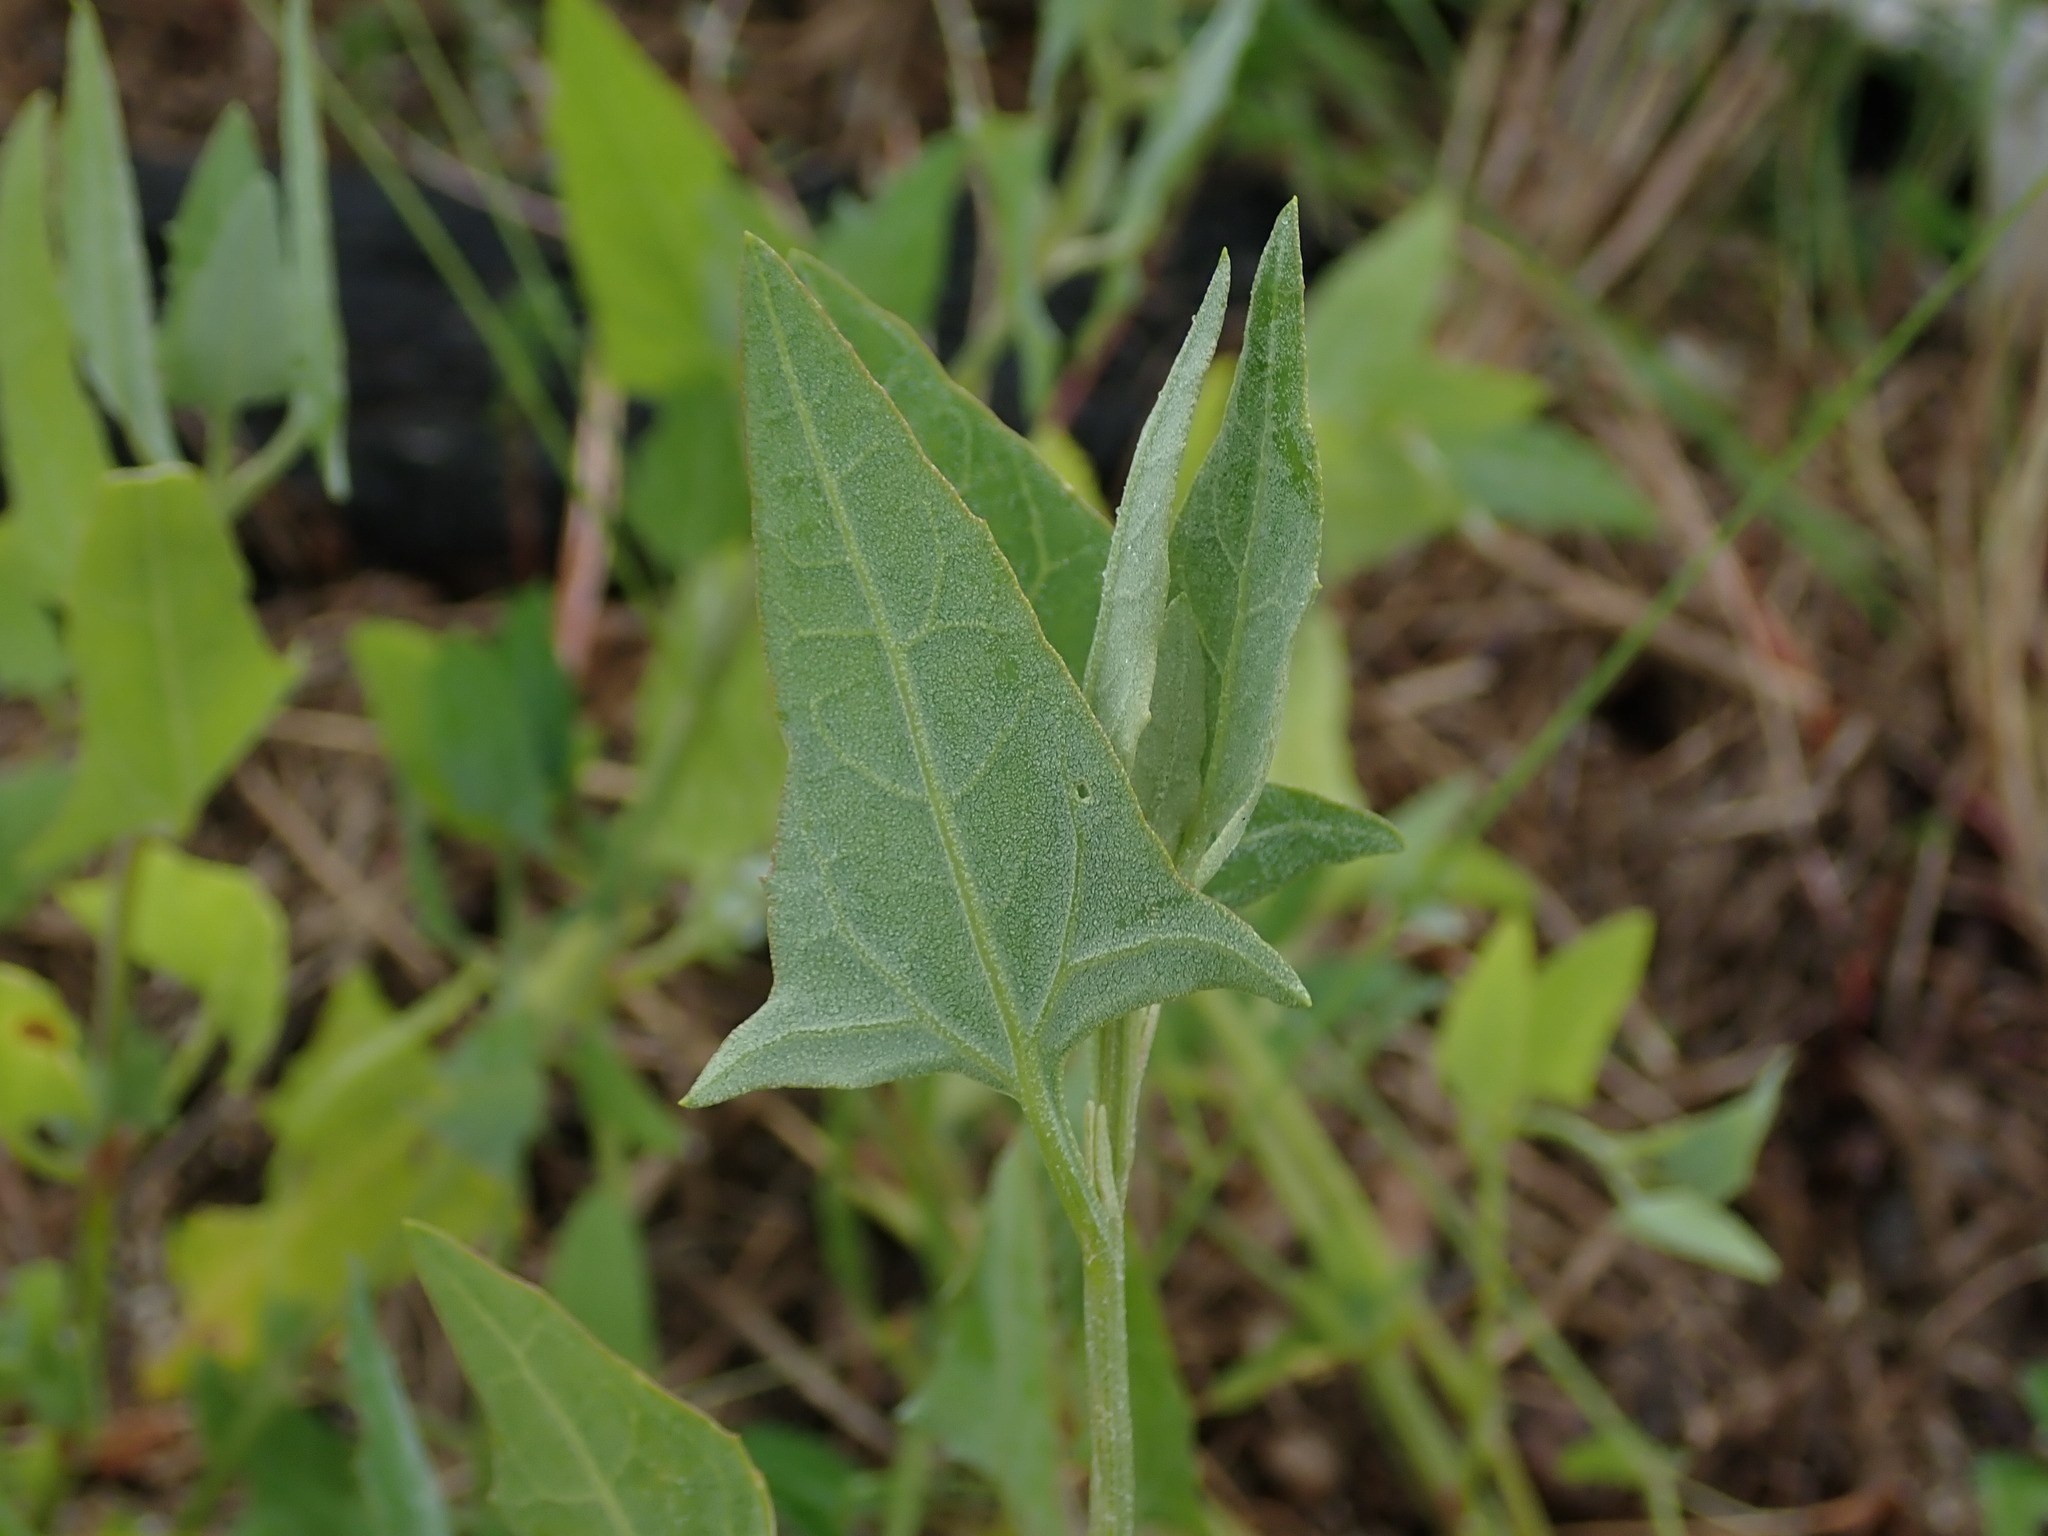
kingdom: Plantae
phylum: Tracheophyta
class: Magnoliopsida
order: Caryophyllales
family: Amaranthaceae
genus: Atriplex
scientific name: Atriplex prostrata
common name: Spear-leaved orache
